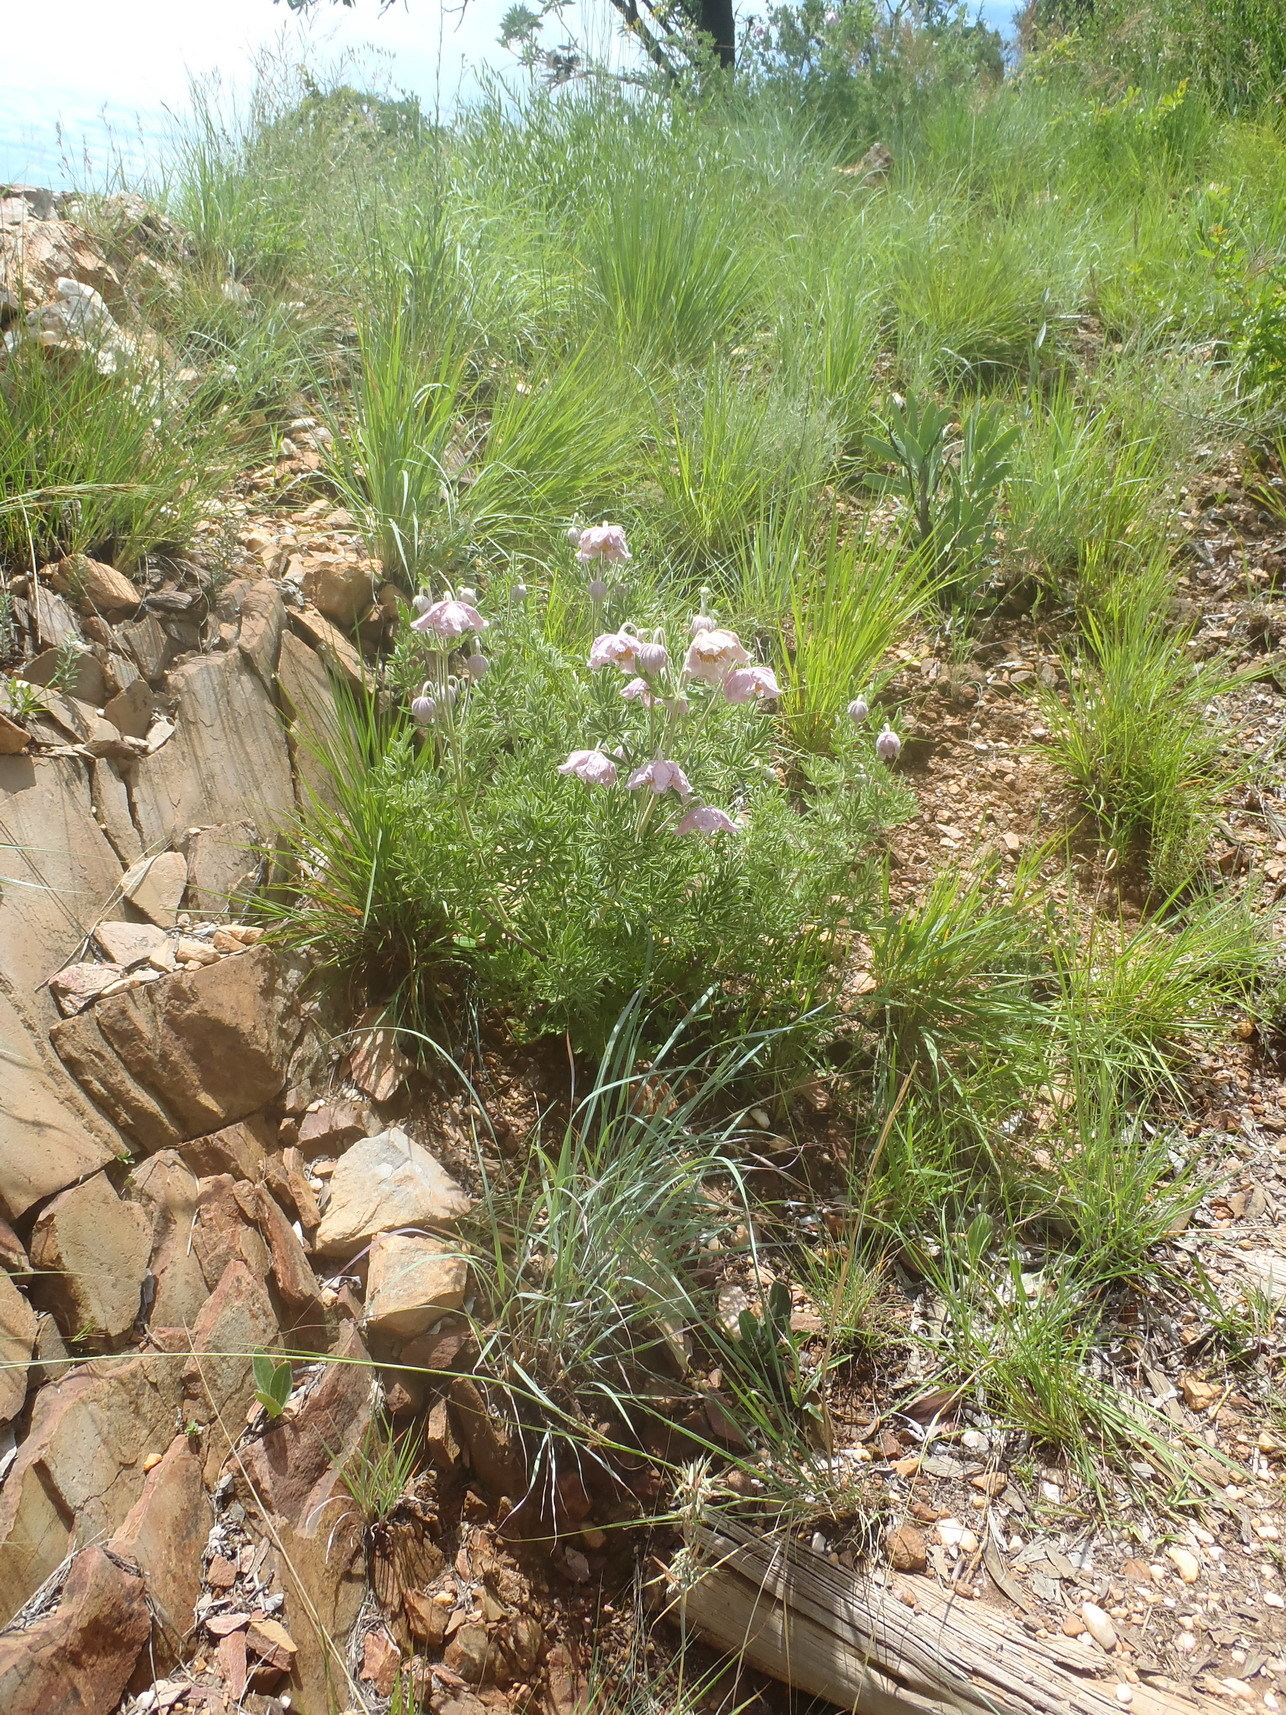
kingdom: Plantae
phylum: Tracheophyta
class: Magnoliopsida
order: Ranunculales
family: Ranunculaceae
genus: Clematis
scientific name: Clematis villosa
